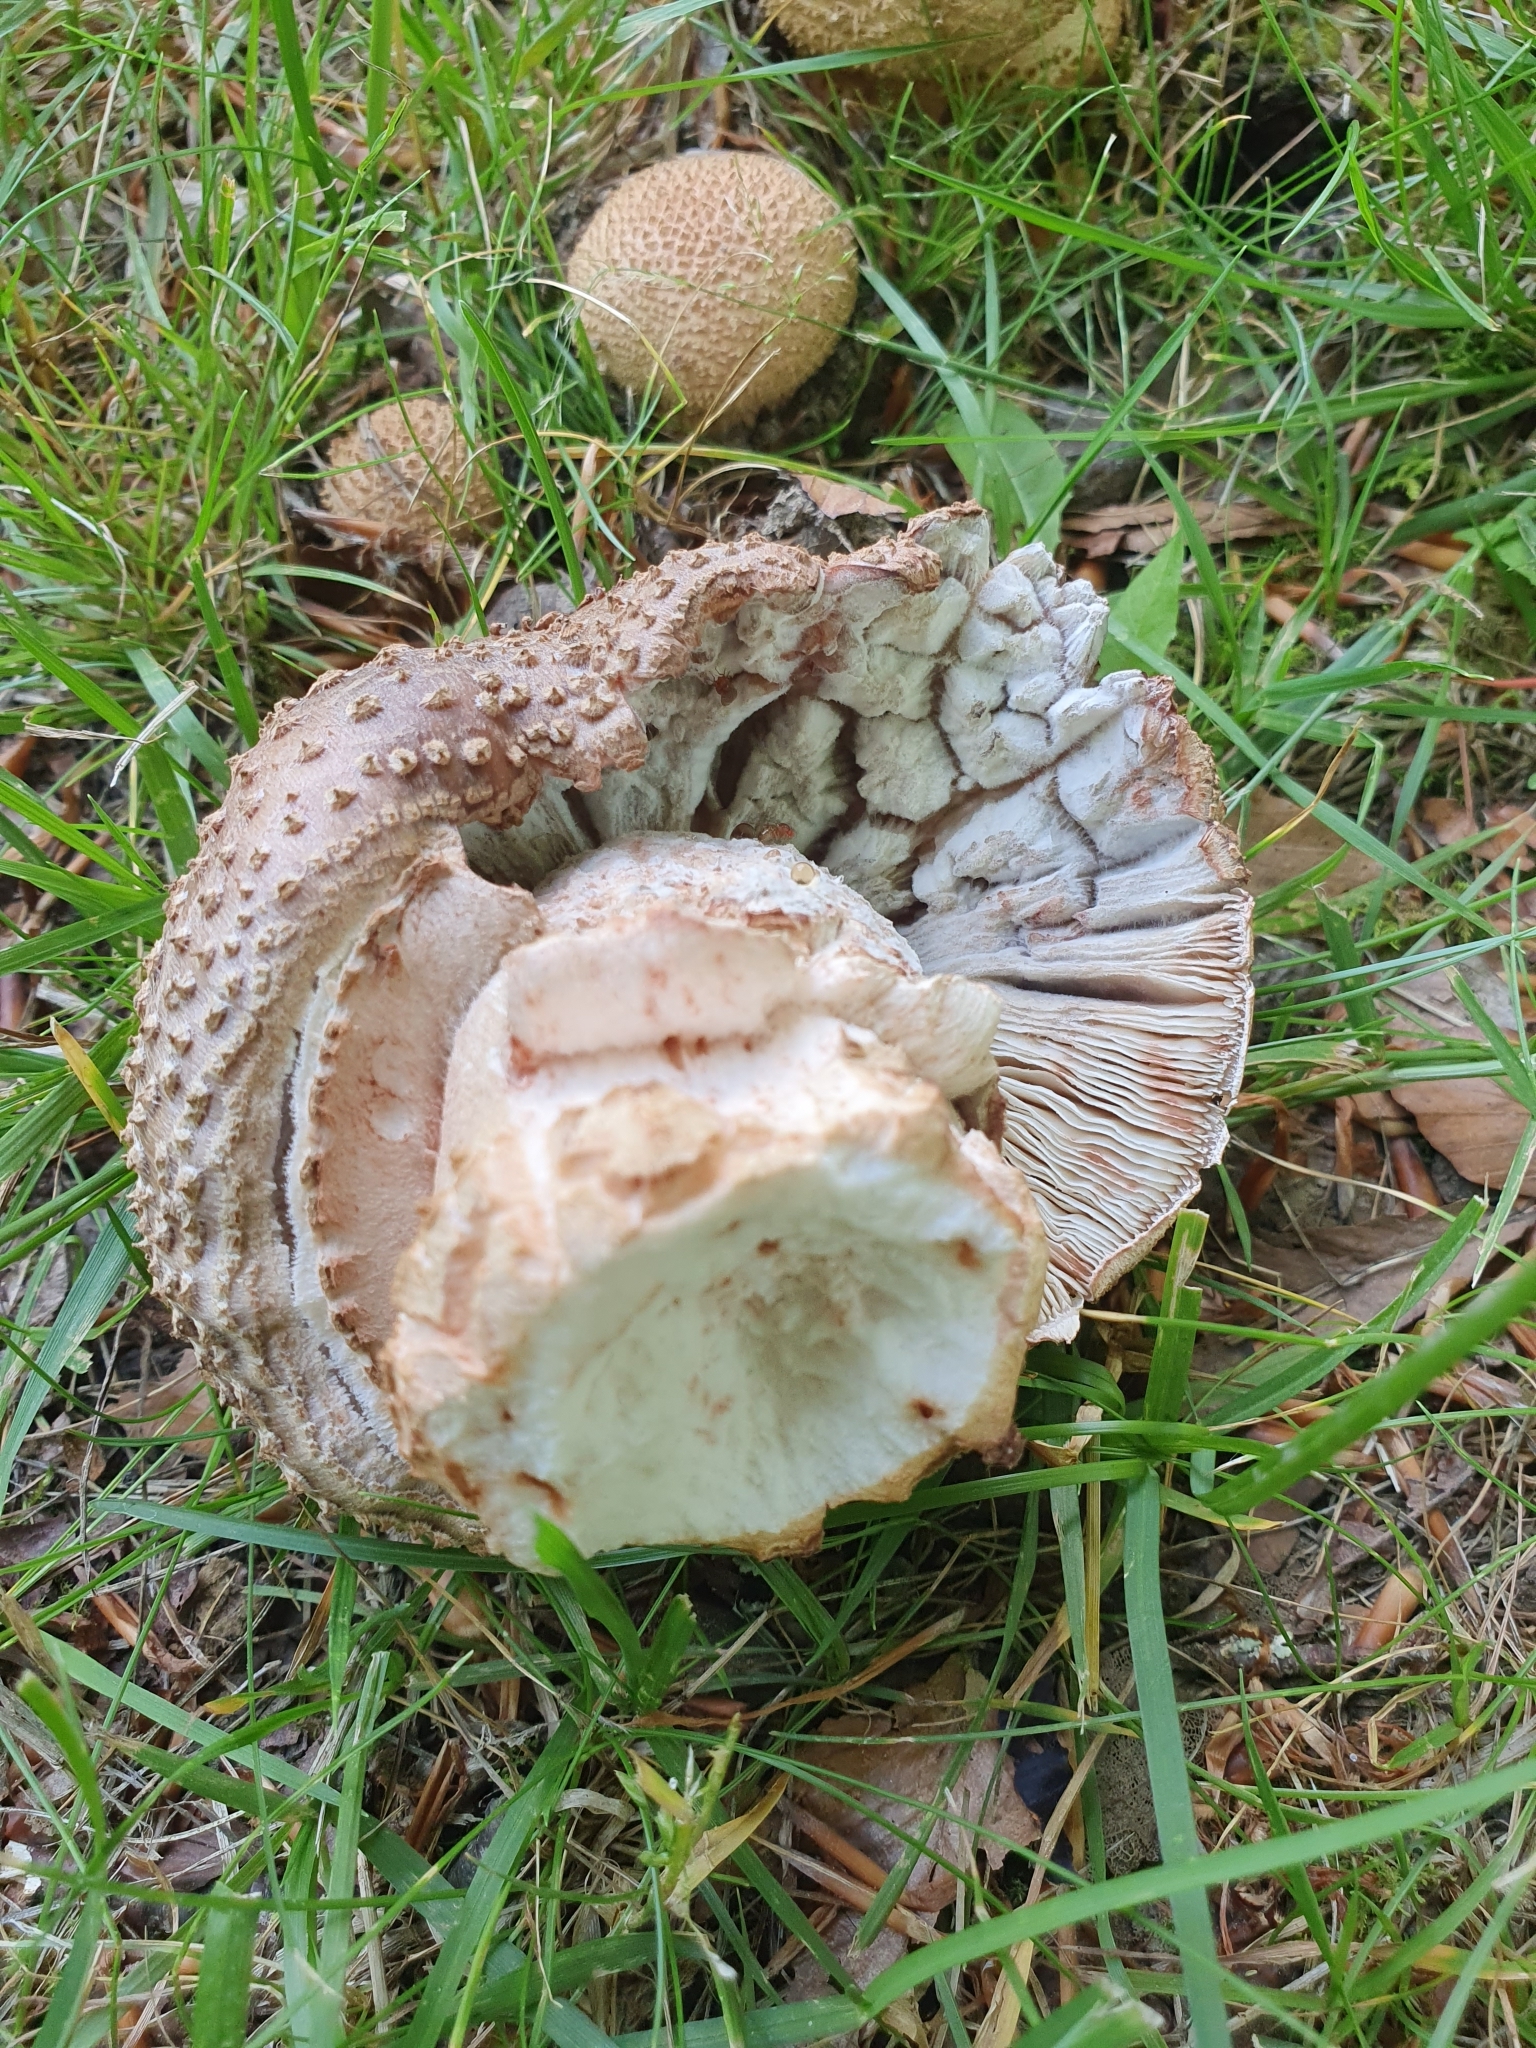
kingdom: Fungi
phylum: Basidiomycota
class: Agaricomycetes
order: Agaricales
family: Amanitaceae
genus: Amanita
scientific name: Amanita rubescens
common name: Blusher
